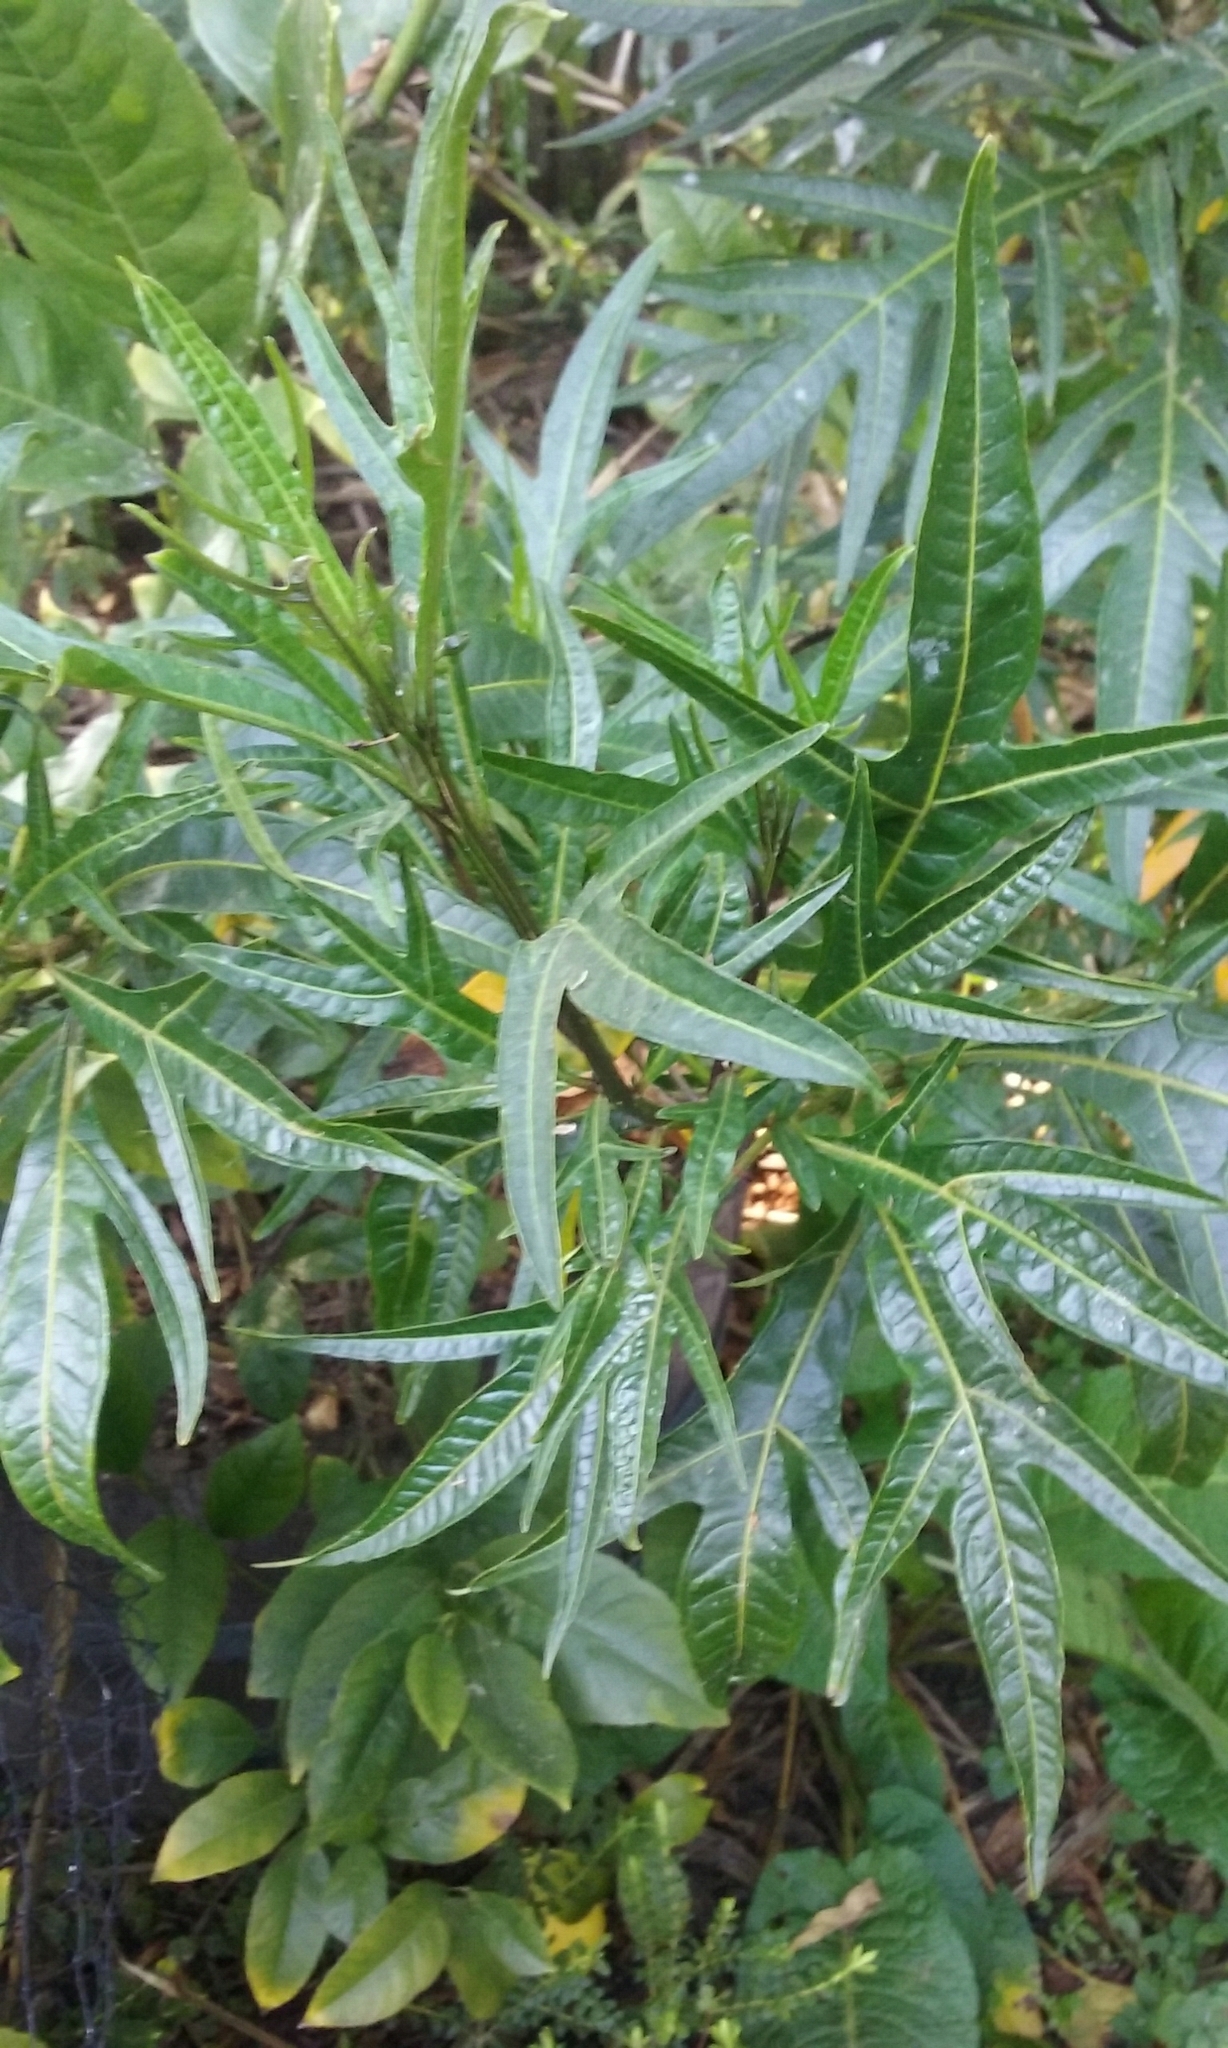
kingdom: Plantae
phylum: Tracheophyta
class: Magnoliopsida
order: Solanales
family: Solanaceae
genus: Solanum
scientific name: Solanum laciniatum
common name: Kangaroo-apple
